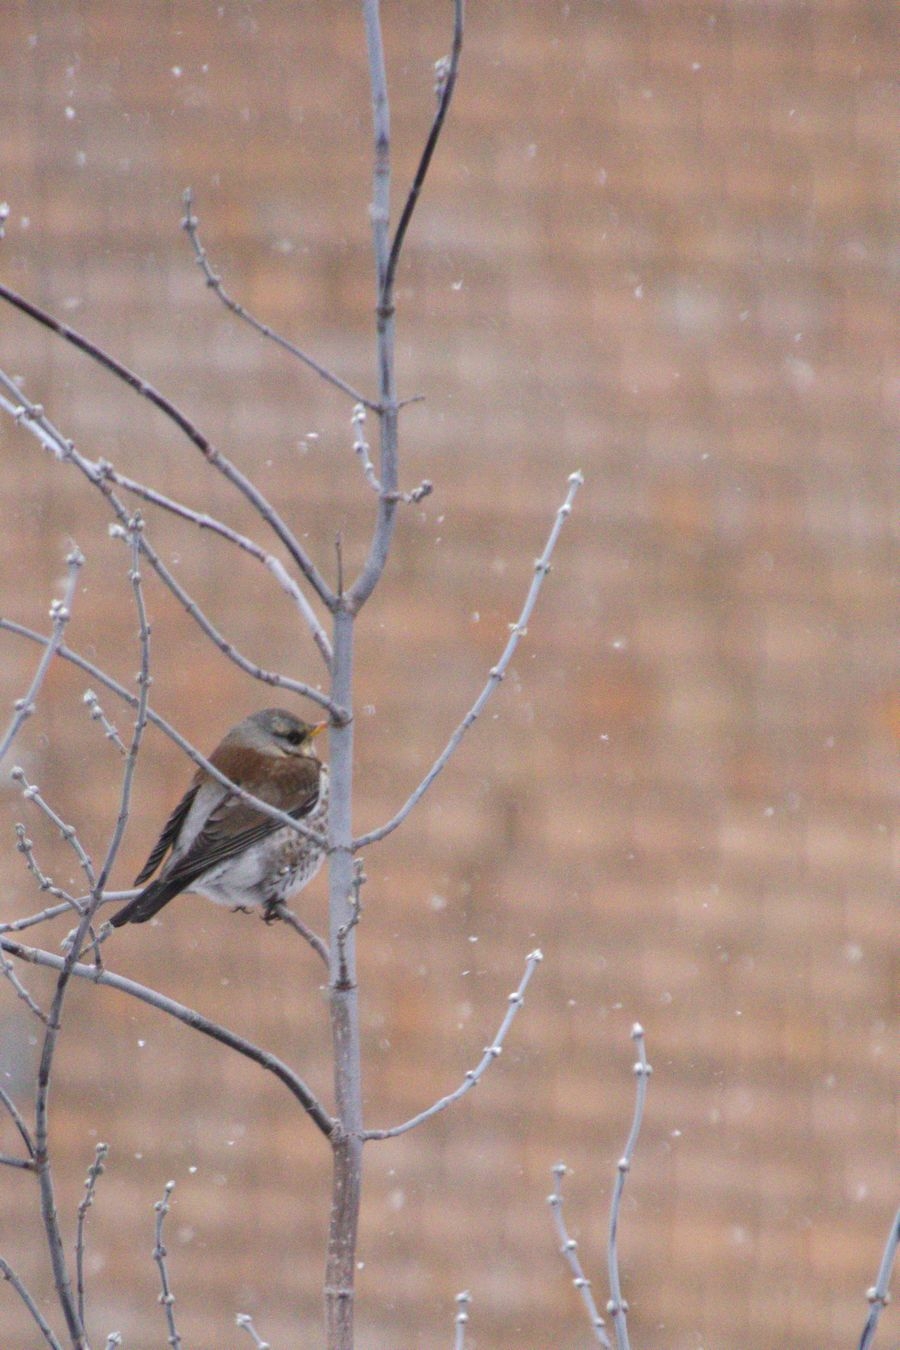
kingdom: Animalia
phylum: Chordata
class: Aves
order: Passeriformes
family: Turdidae
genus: Turdus
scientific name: Turdus pilaris
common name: Fieldfare
